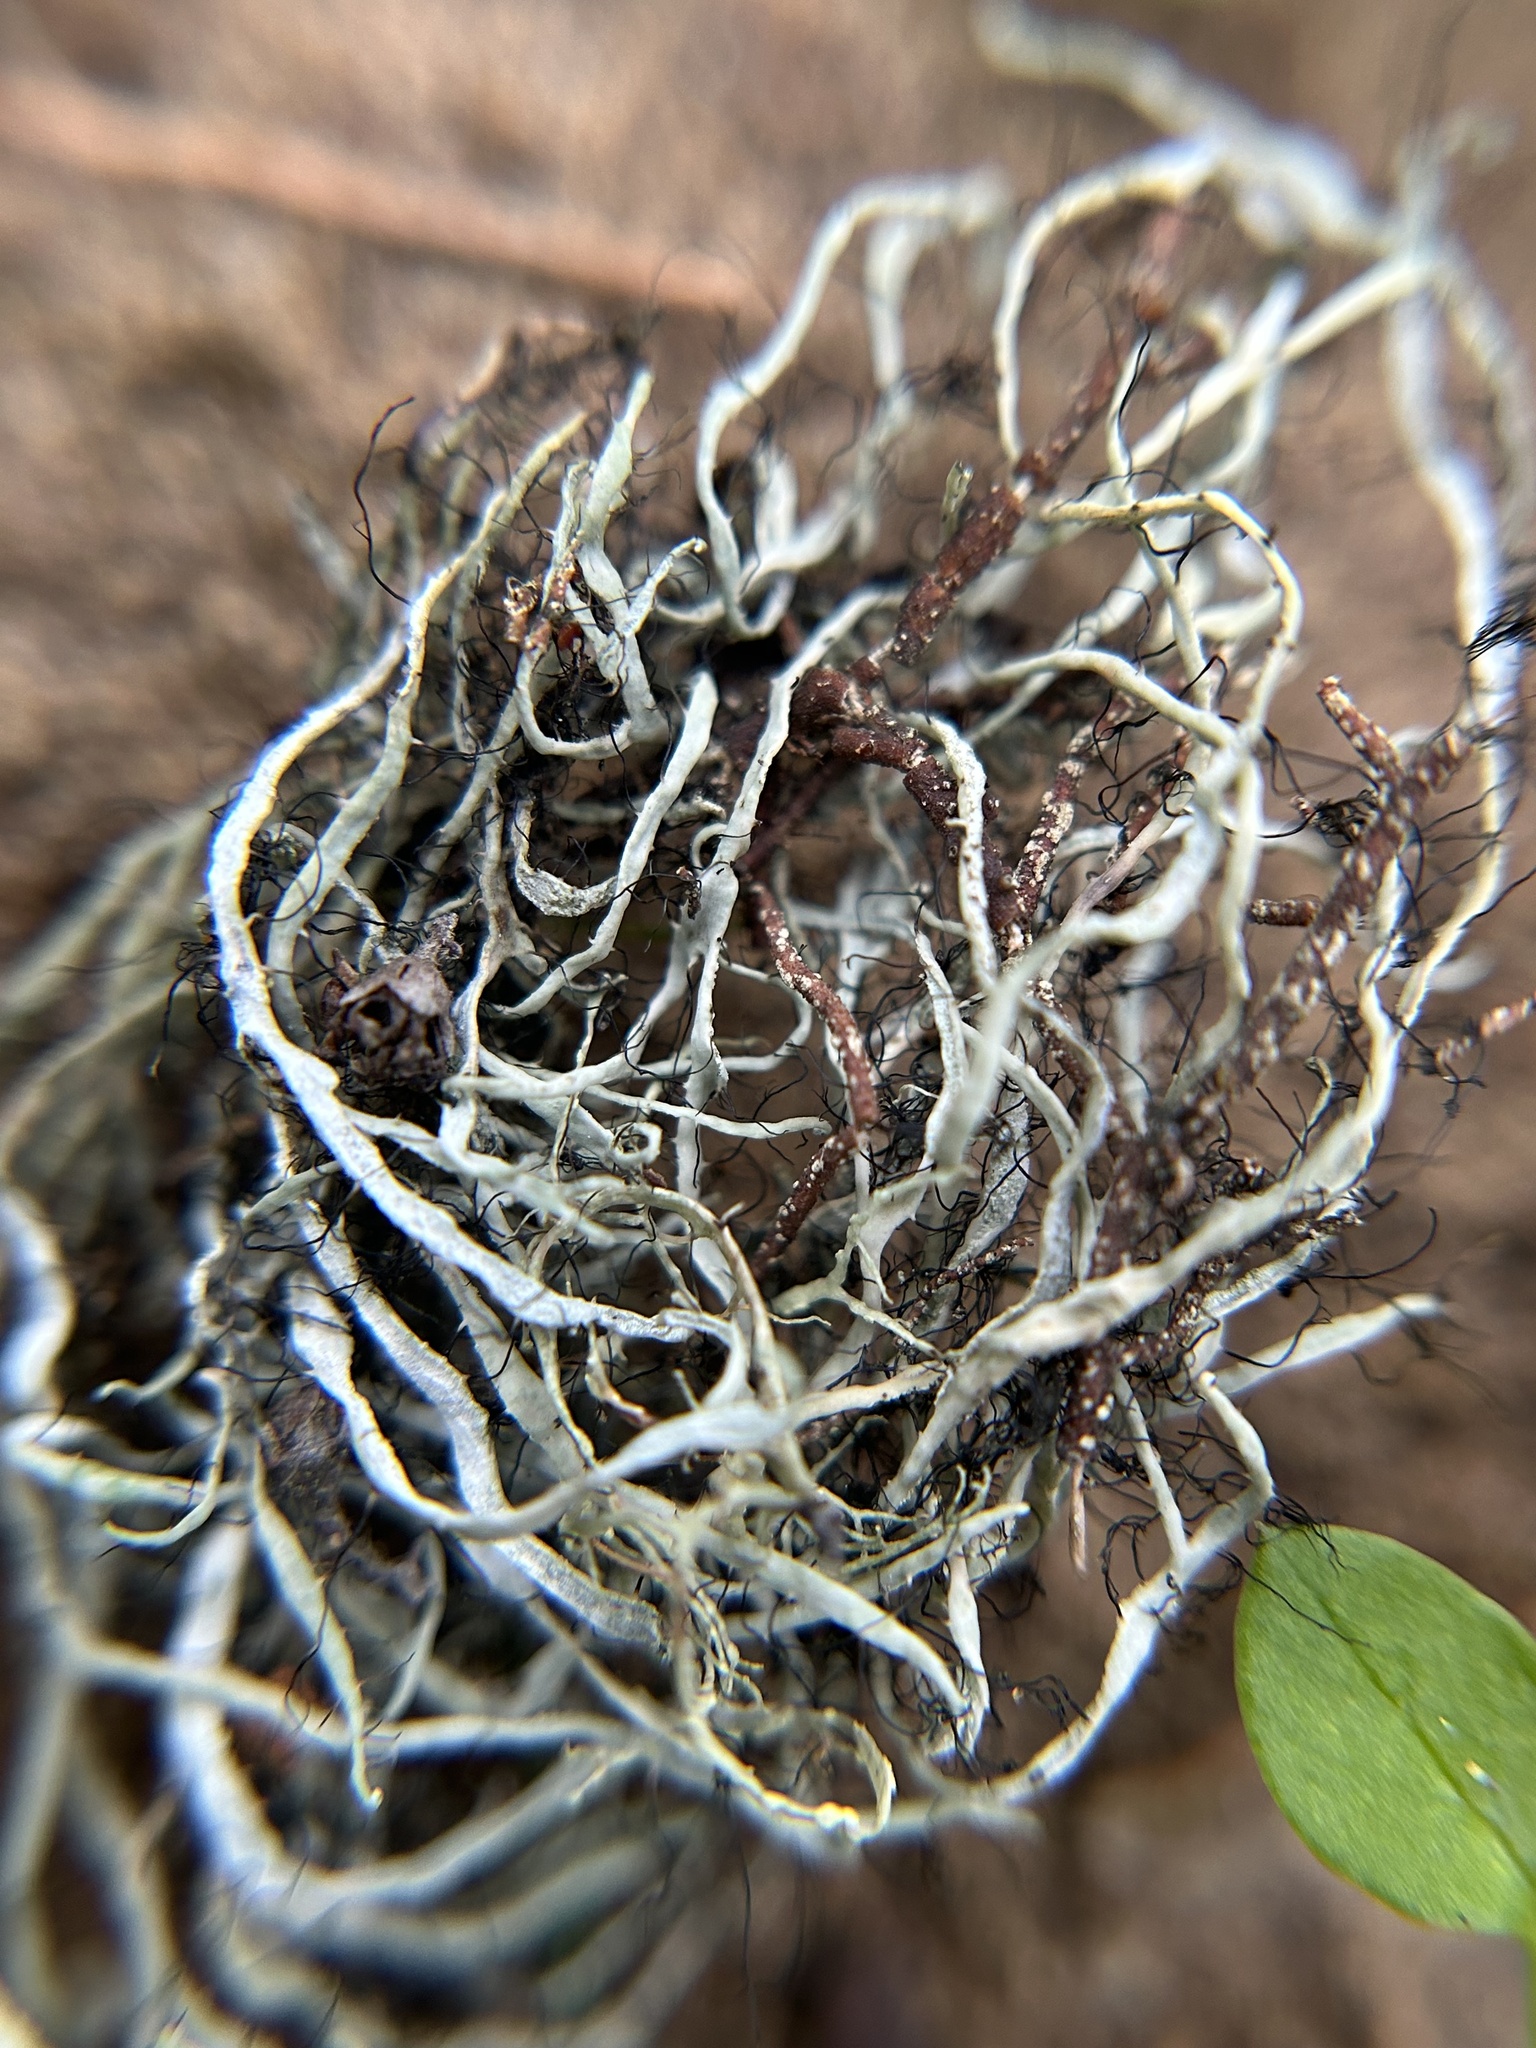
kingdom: Fungi
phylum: Ascomycota
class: Lecanoromycetes
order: Caliciales
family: Physciaceae
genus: Leucodermia
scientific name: Leucodermia leucomelos
